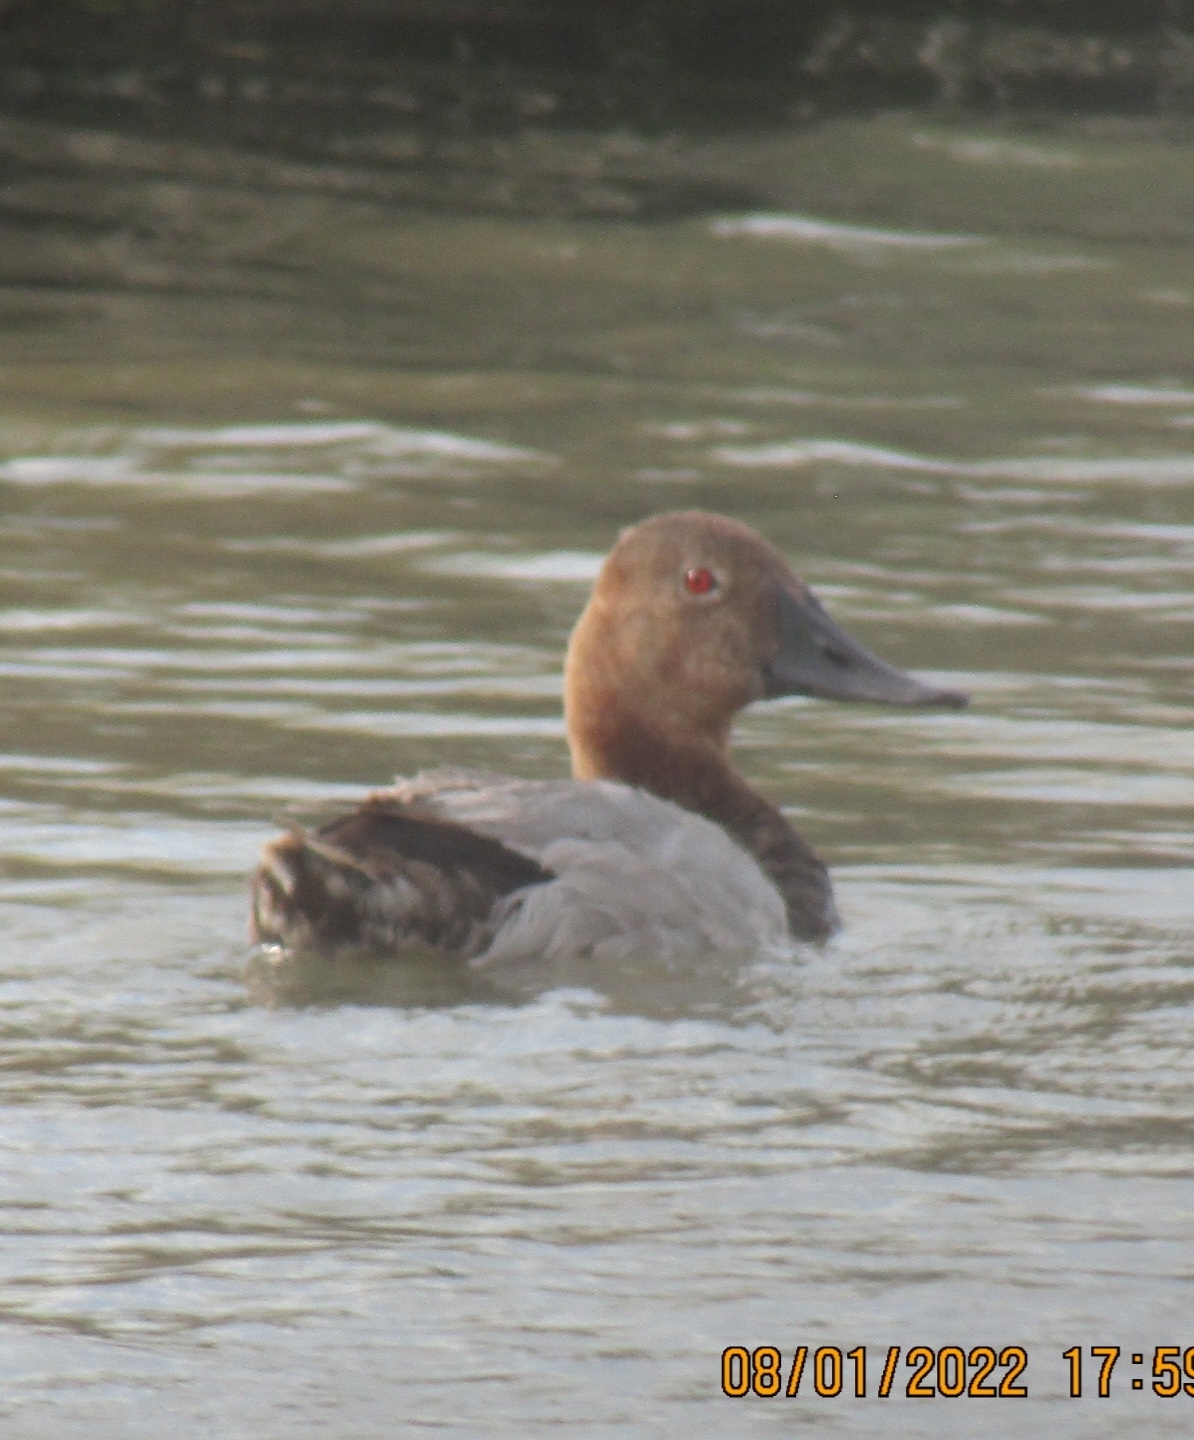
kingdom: Animalia
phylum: Chordata
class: Aves
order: Anseriformes
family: Anatidae
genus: Aythya
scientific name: Aythya valisineria
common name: Canvasback
